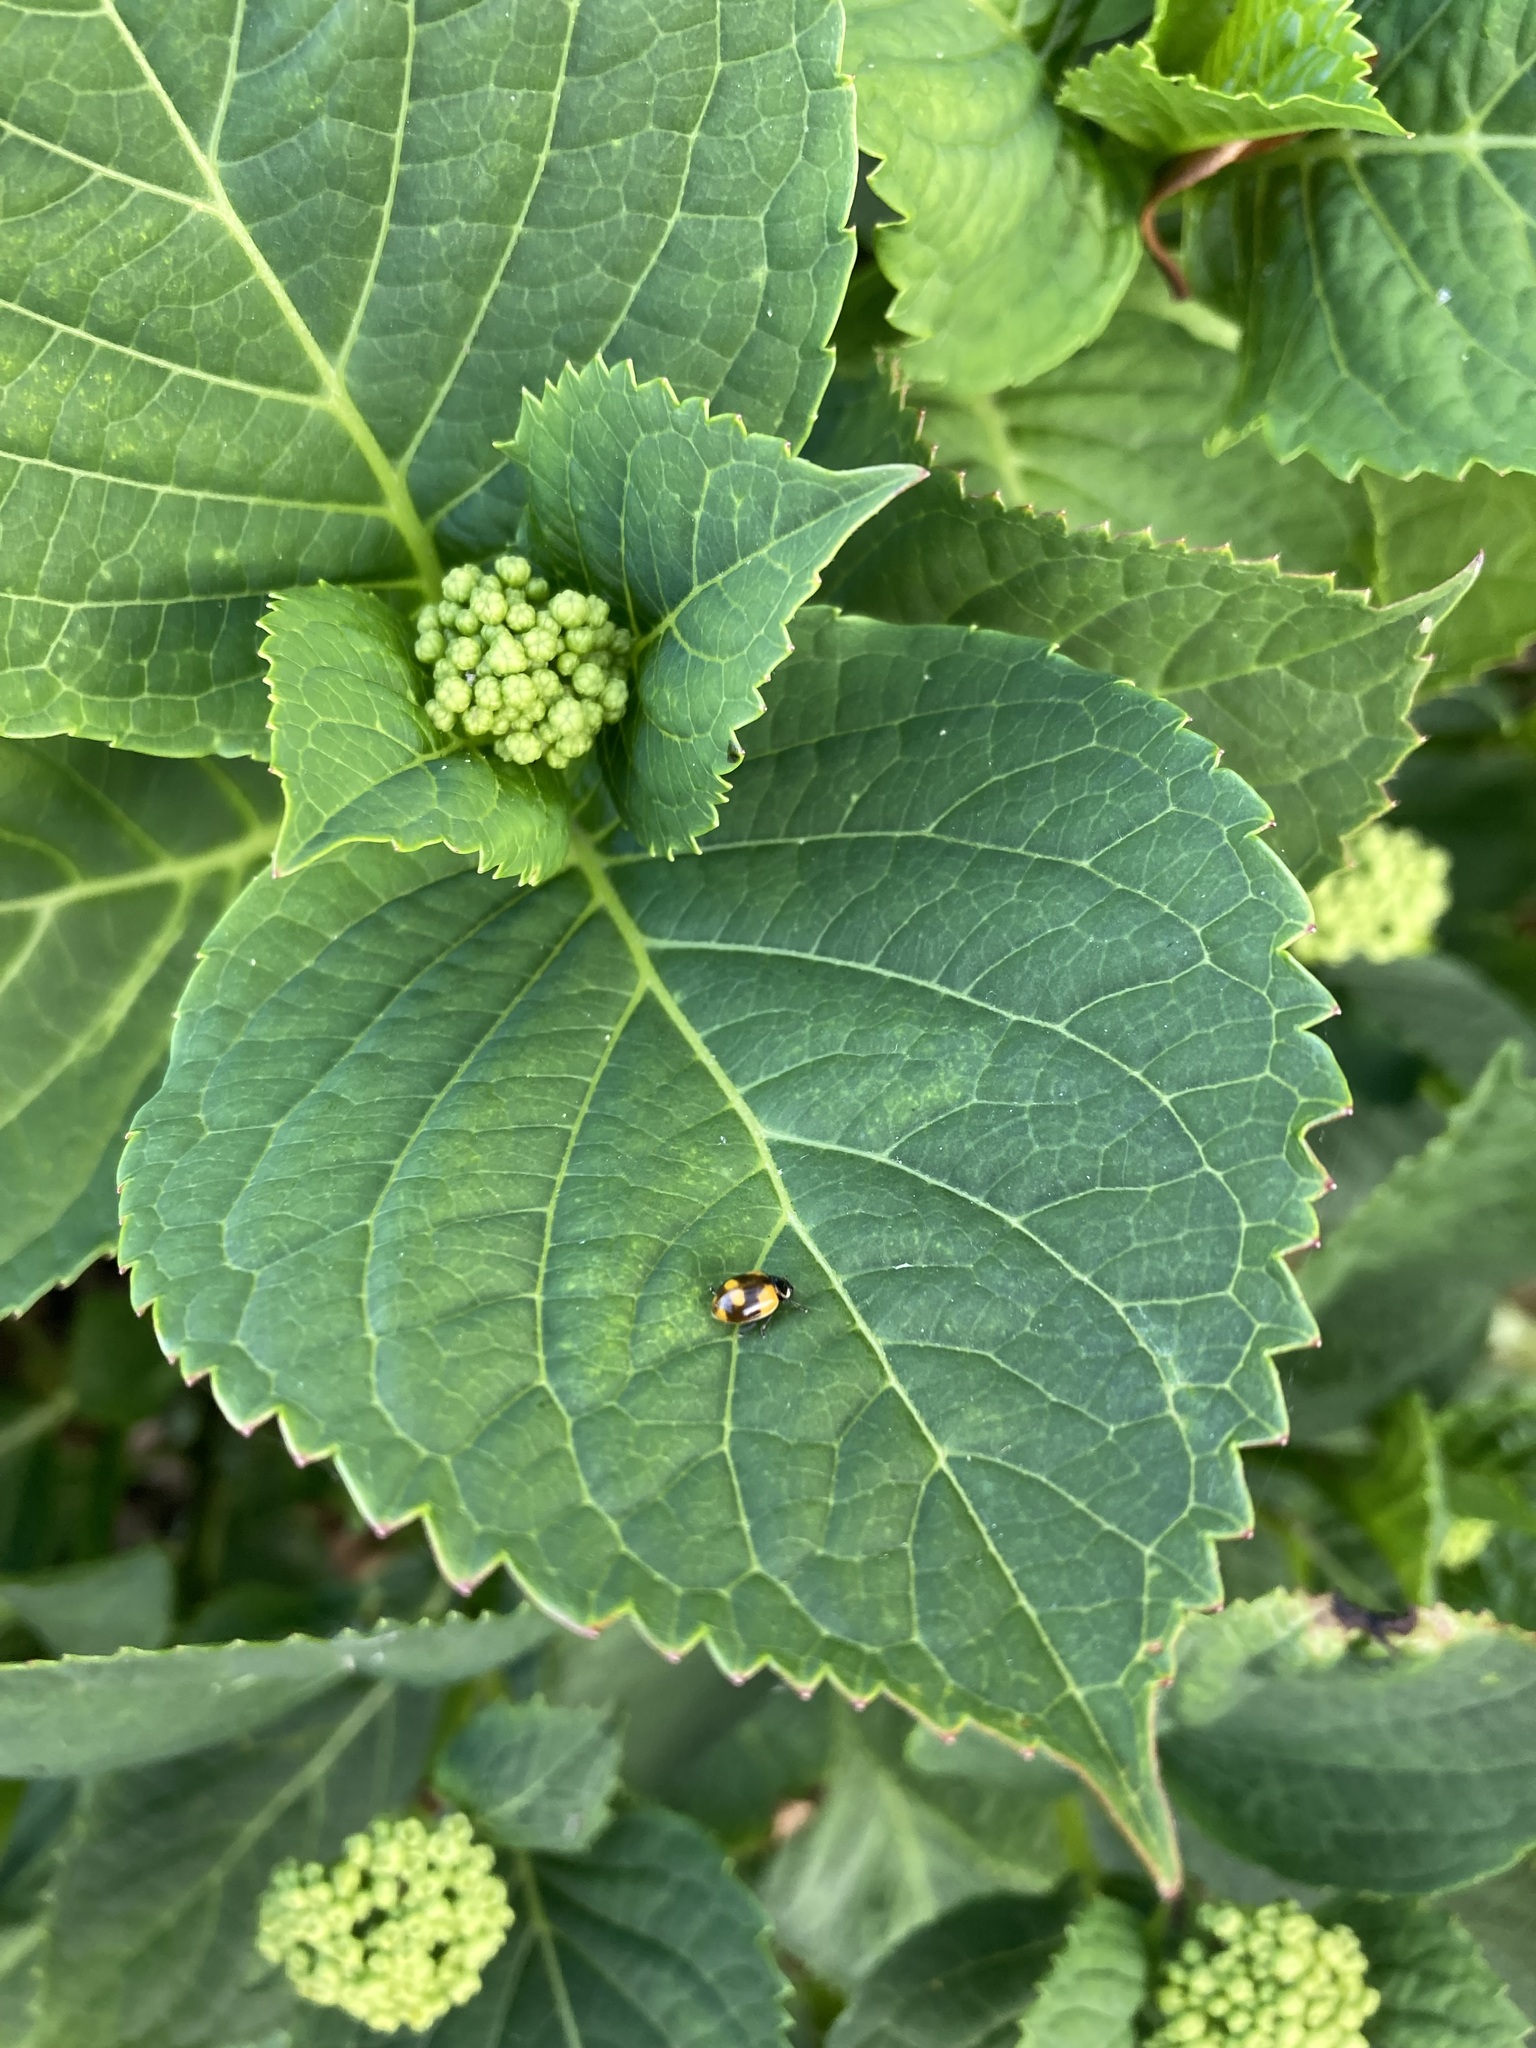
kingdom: Animalia
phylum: Arthropoda
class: Insecta
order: Coleoptera
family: Coccinellidae
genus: Adalia
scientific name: Adalia bipunctata
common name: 2-spot ladybird
